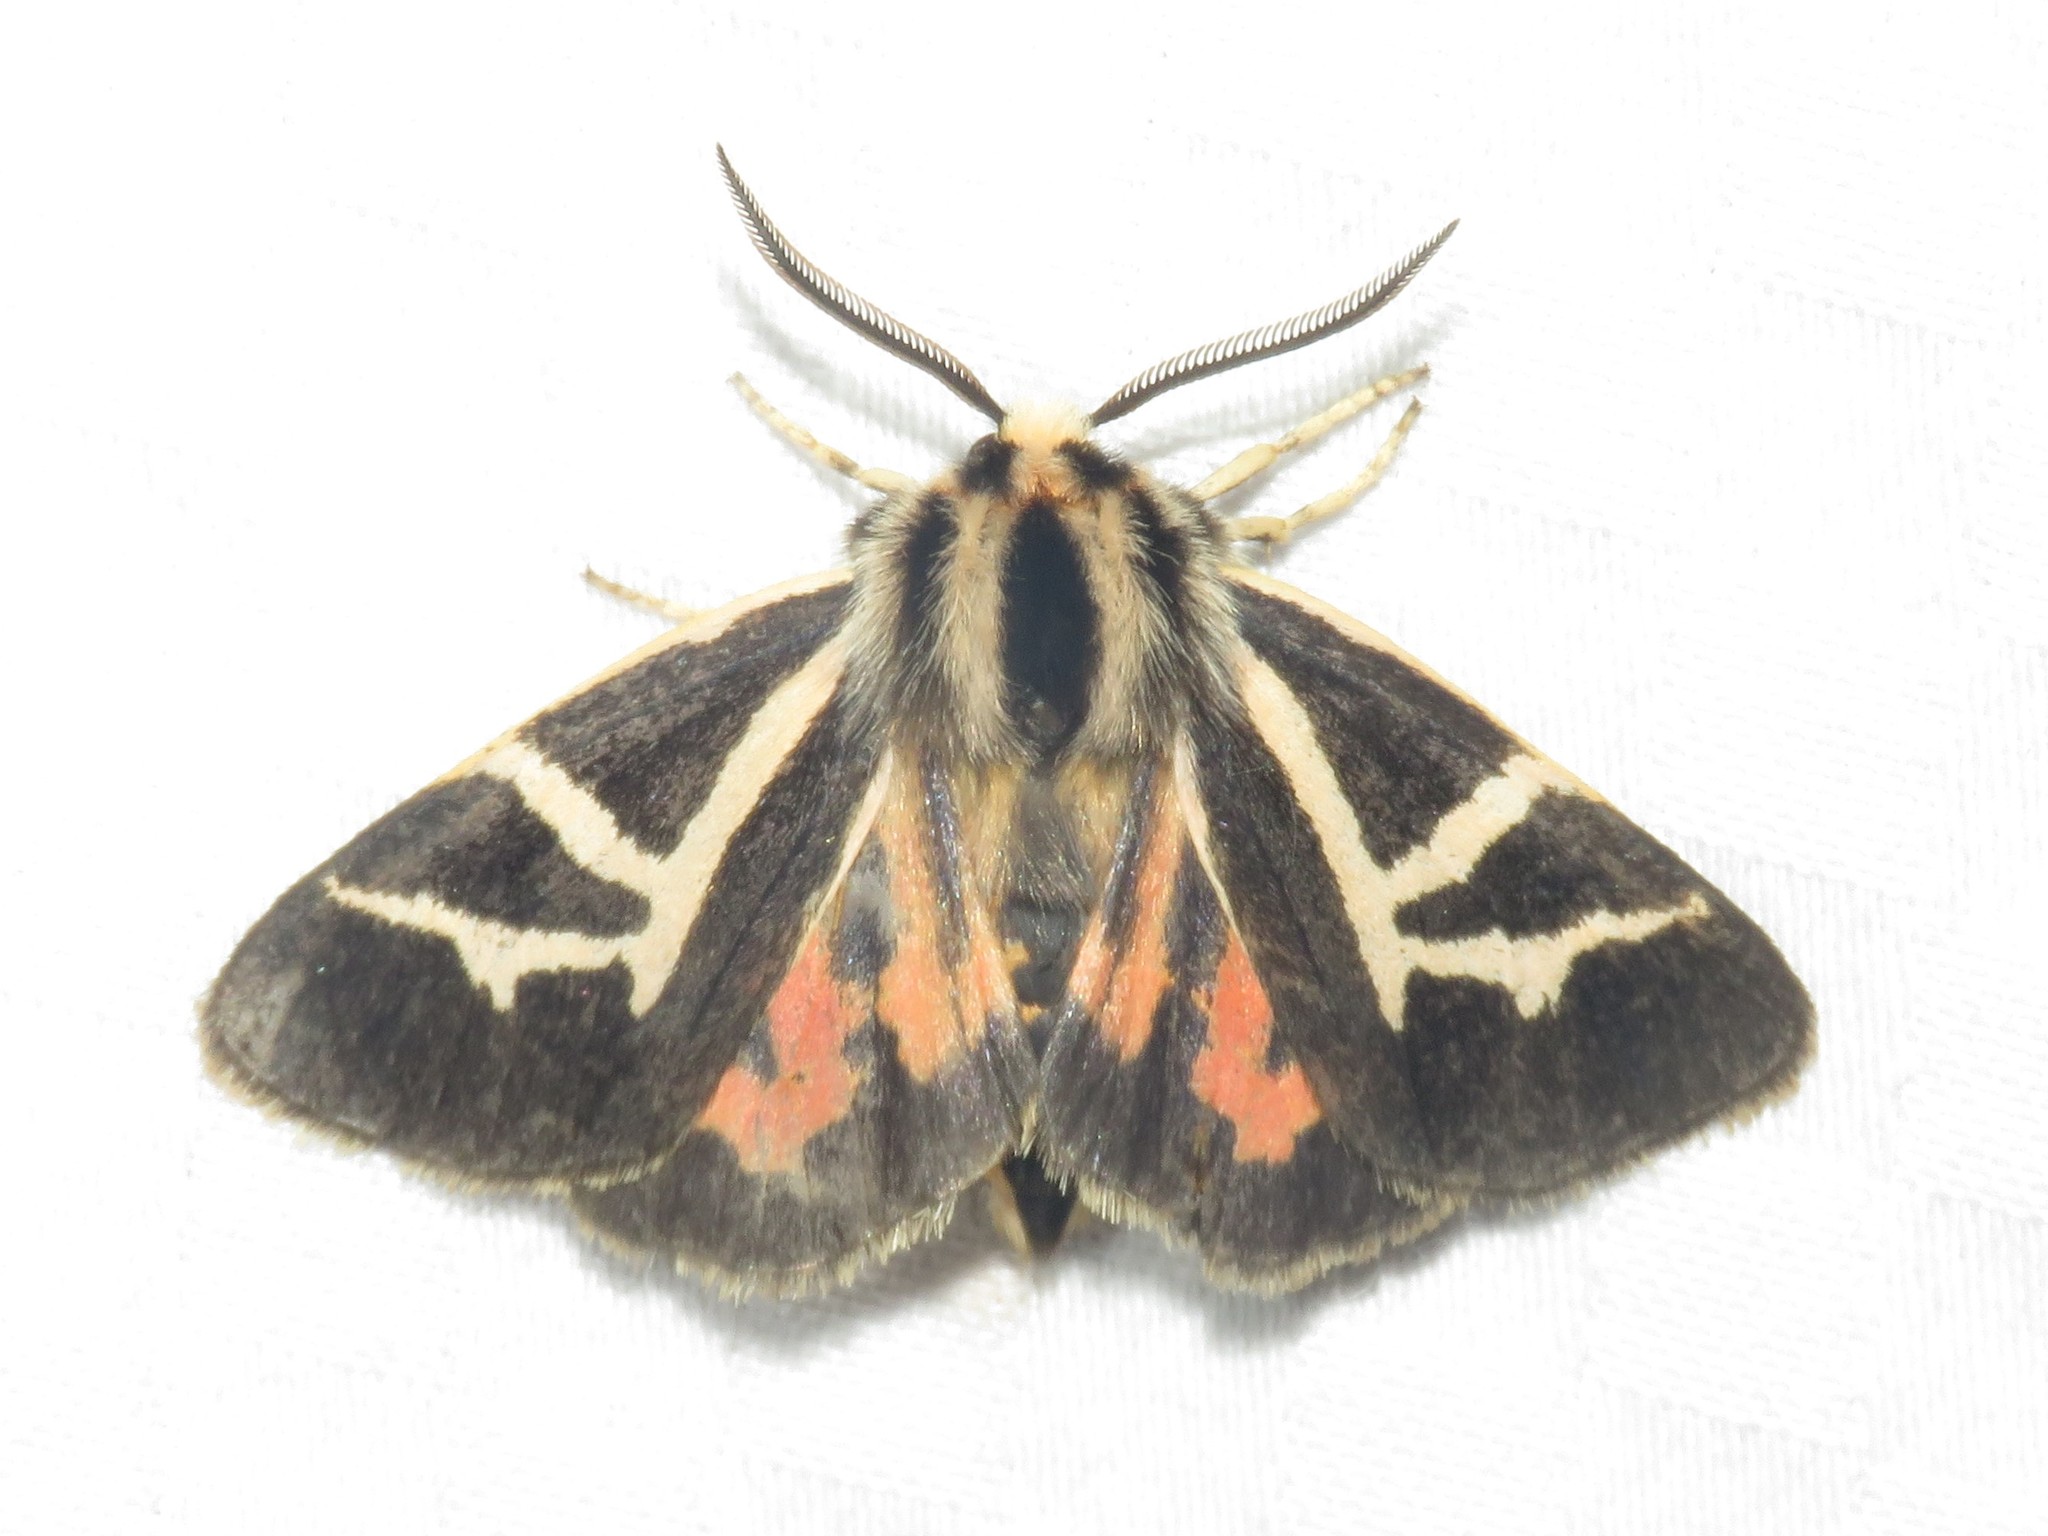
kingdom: Animalia
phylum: Arthropoda
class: Insecta
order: Lepidoptera
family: Erebidae
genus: Apantesis
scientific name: Apantesis
